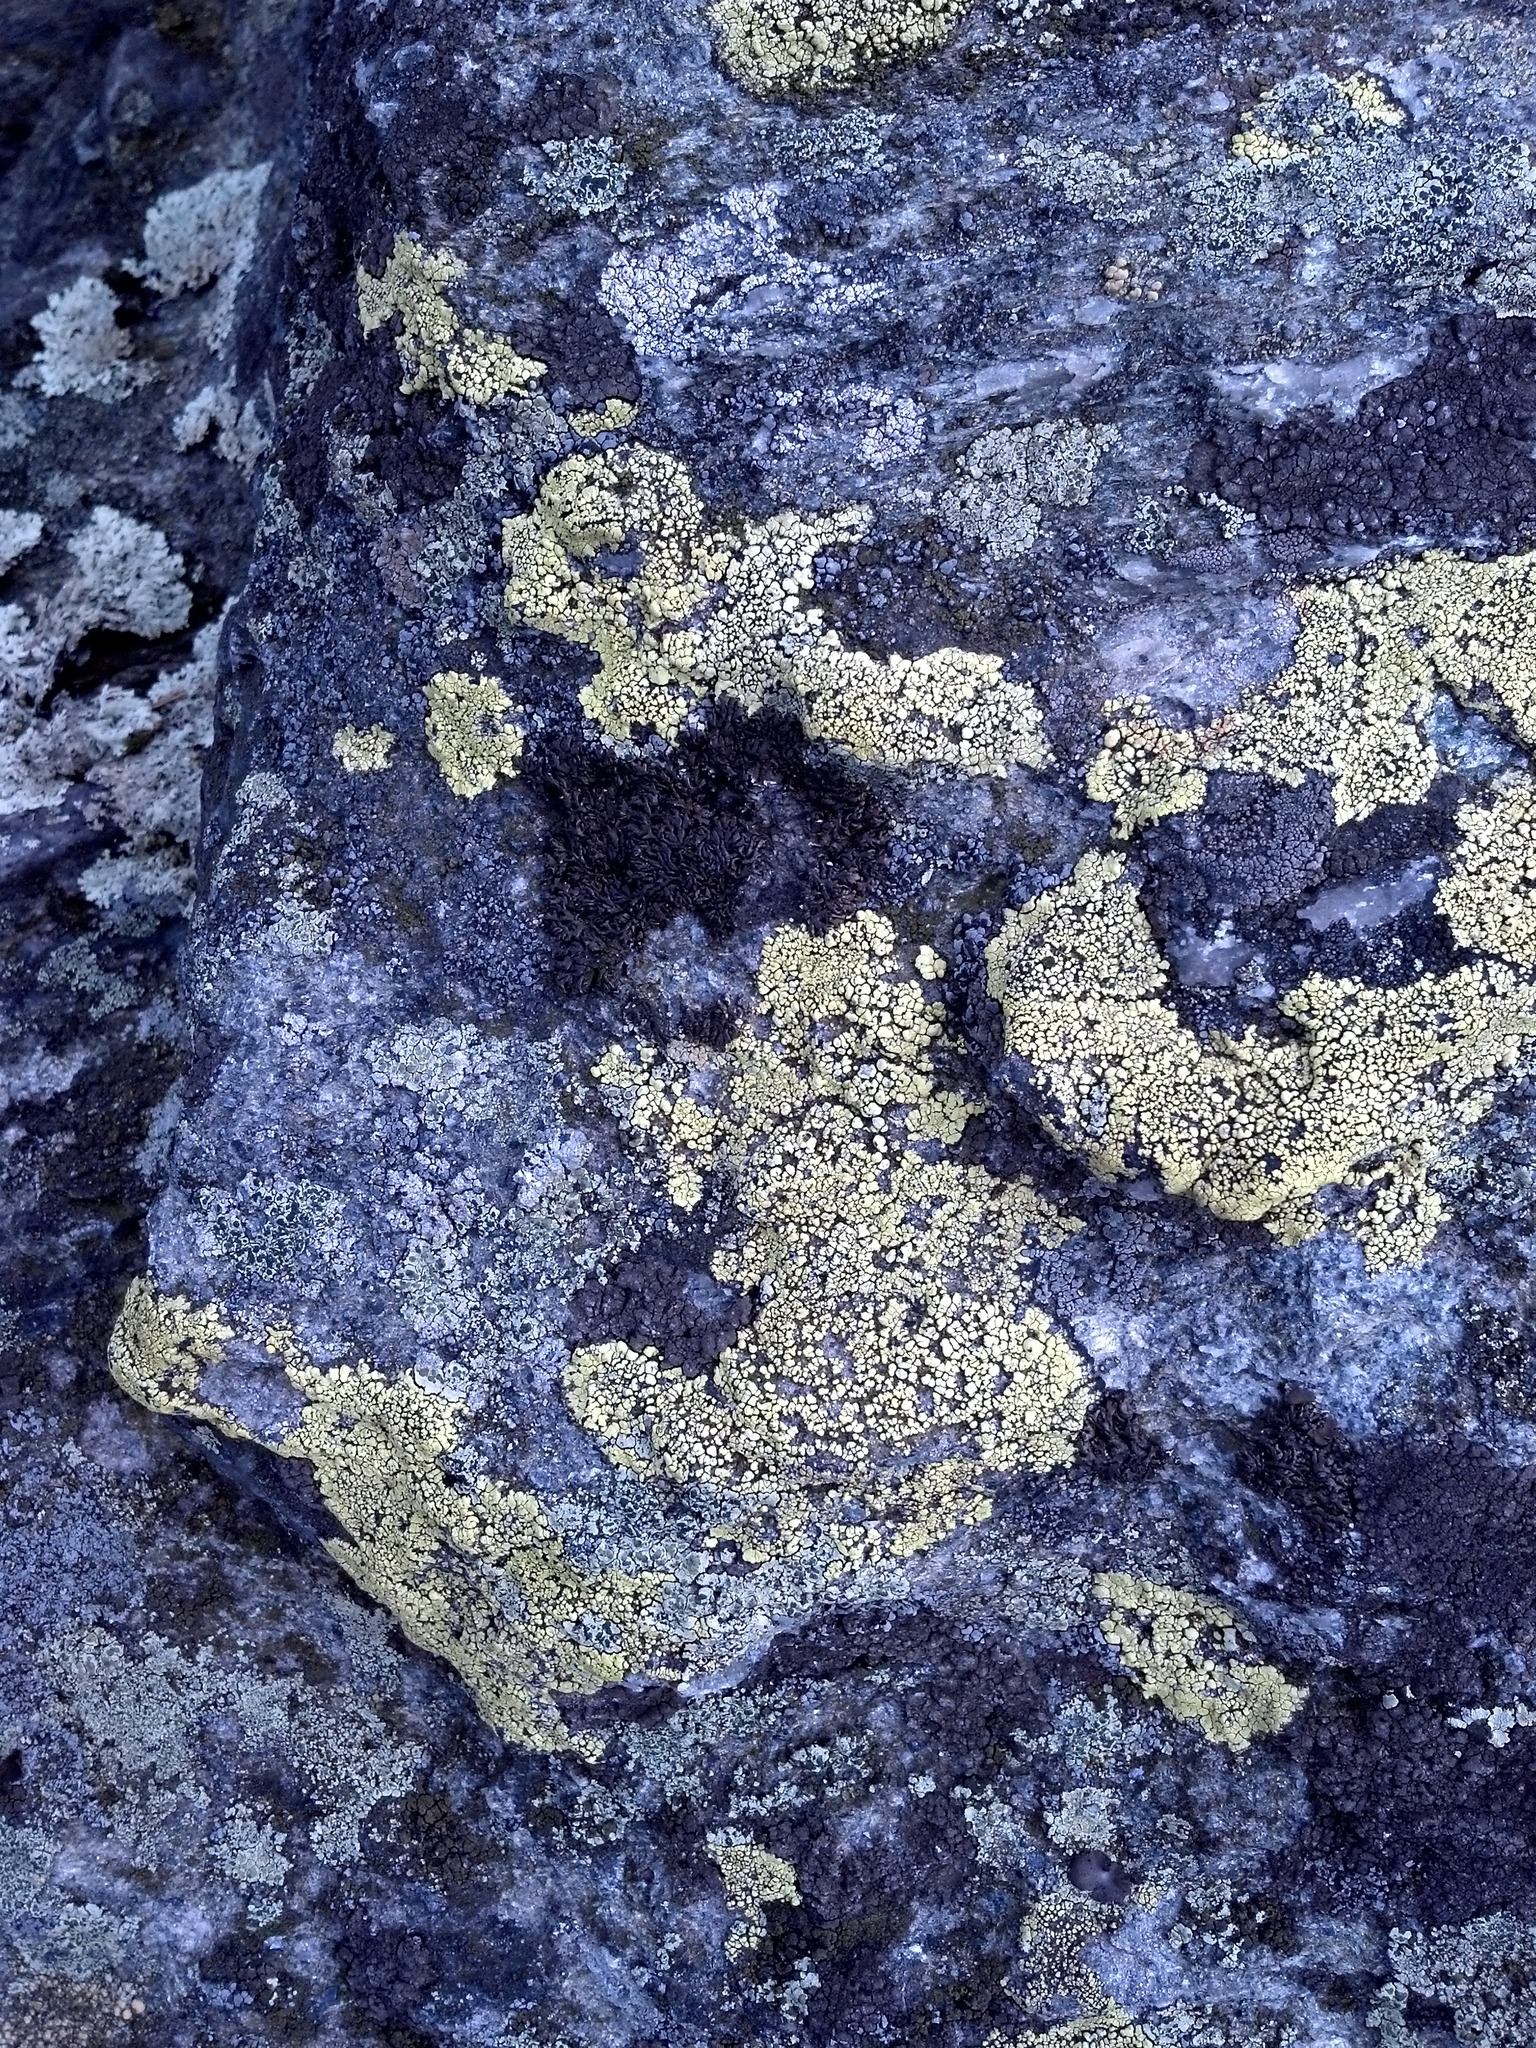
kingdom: Fungi
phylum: Ascomycota
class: Lecanoromycetes
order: Rhizocarpales
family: Rhizocarpaceae
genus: Rhizocarpon
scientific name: Rhizocarpon geographicum
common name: Yellow map lichen
